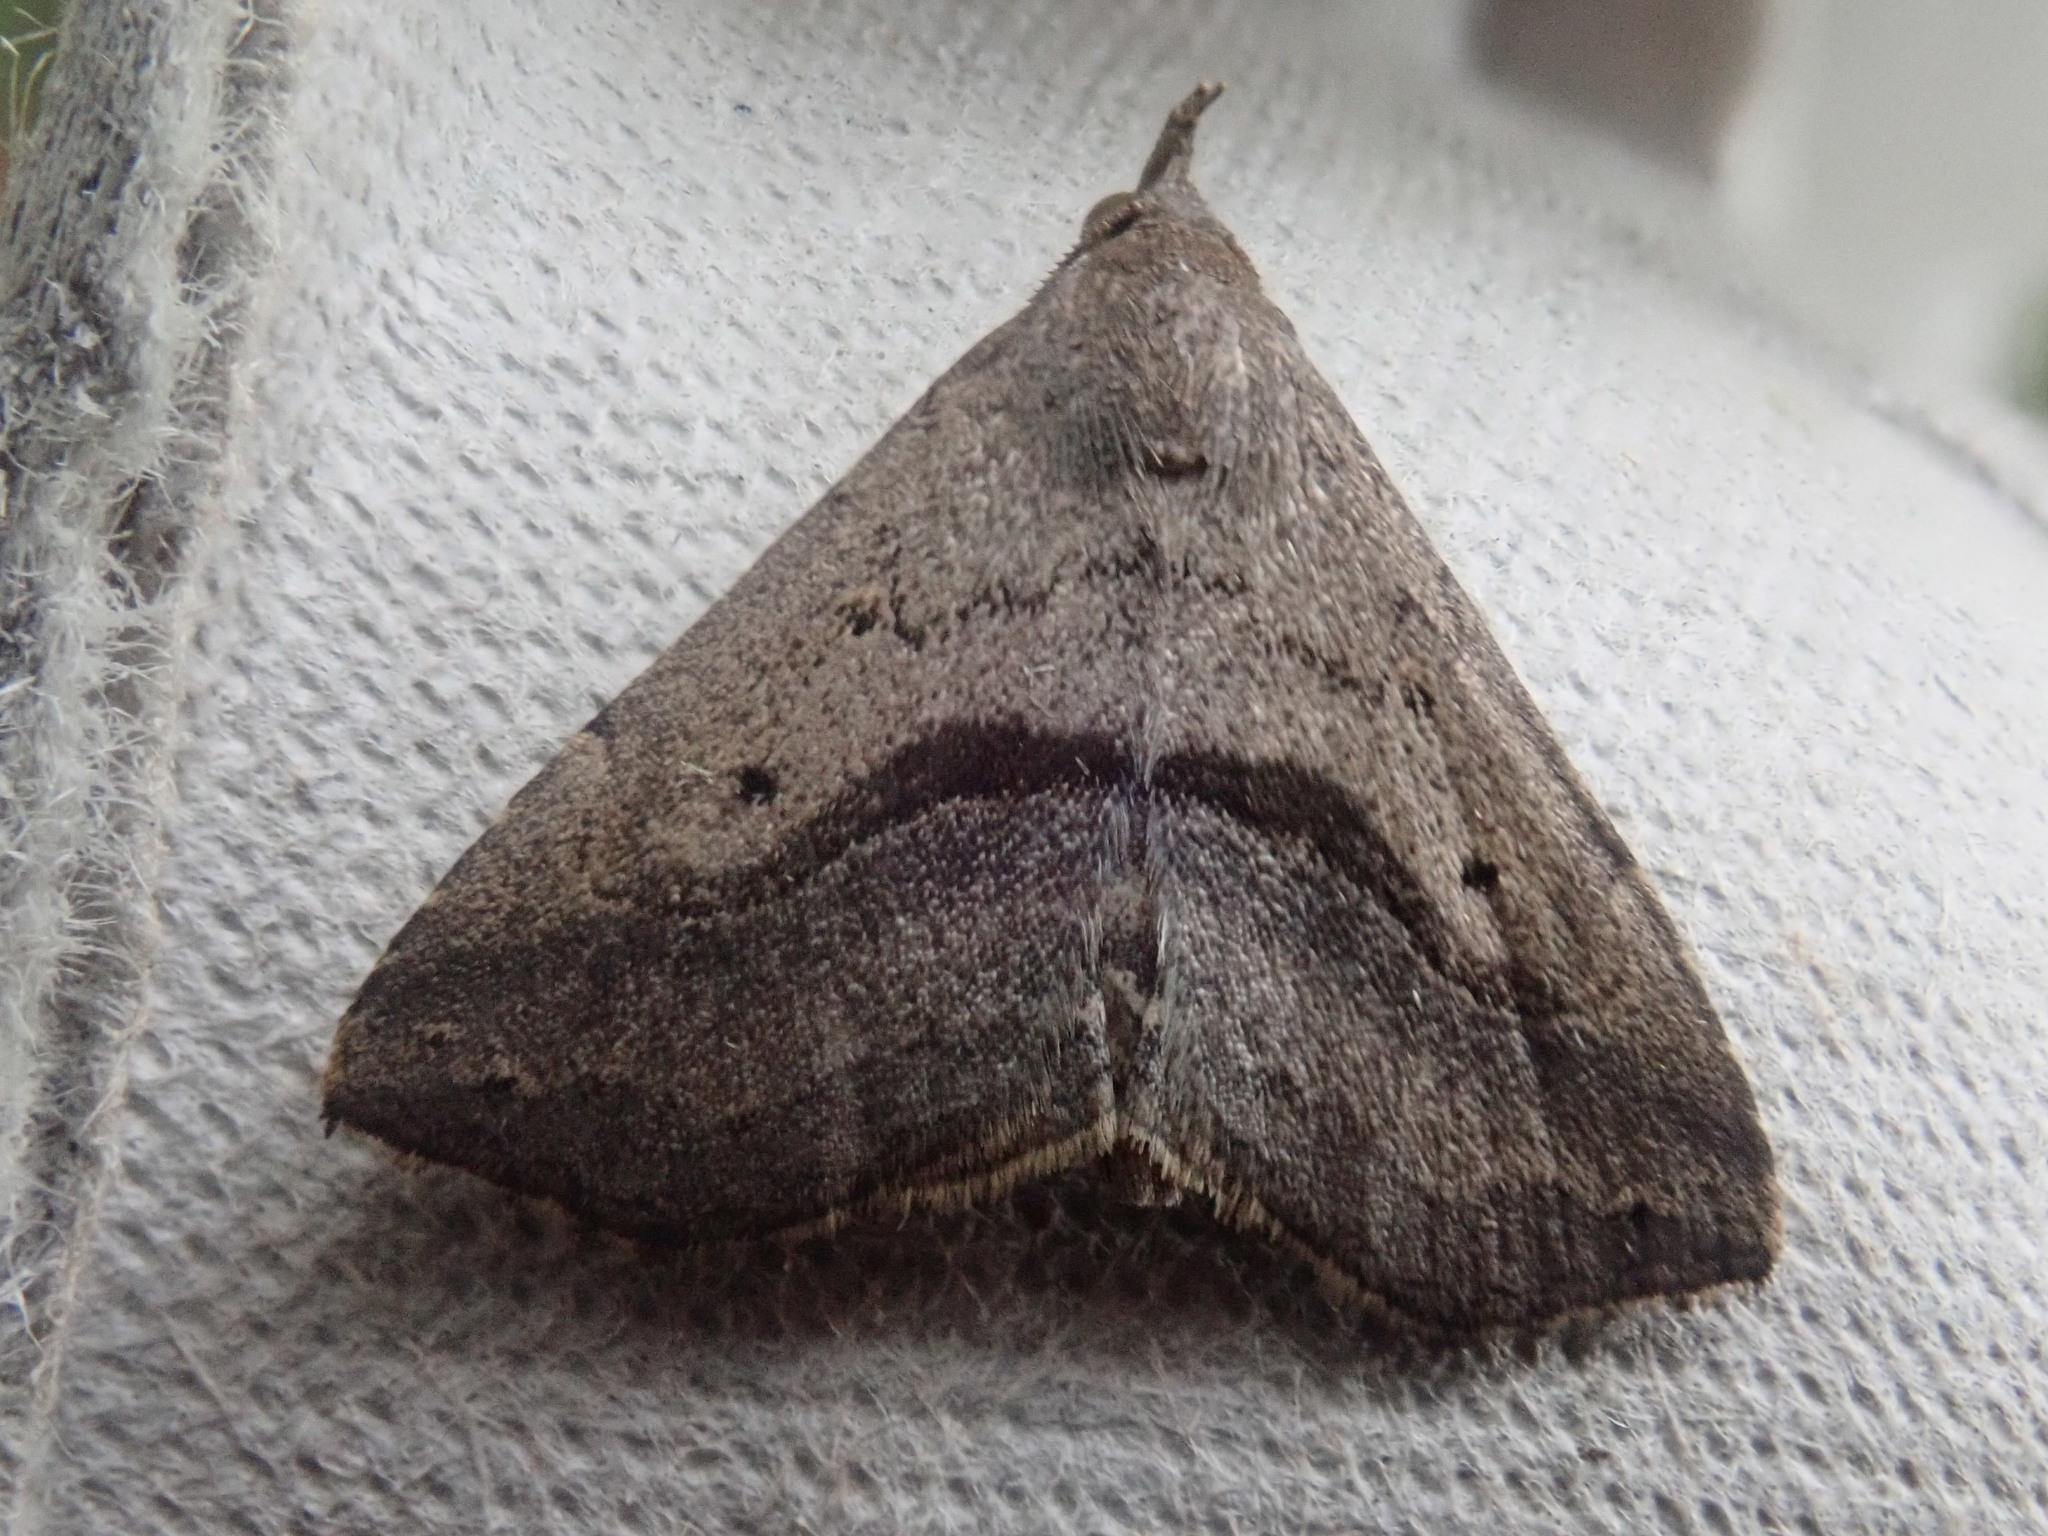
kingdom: Animalia
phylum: Arthropoda
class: Insecta
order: Lepidoptera
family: Erebidae
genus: Spargaloma
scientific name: Spargaloma perditalis
